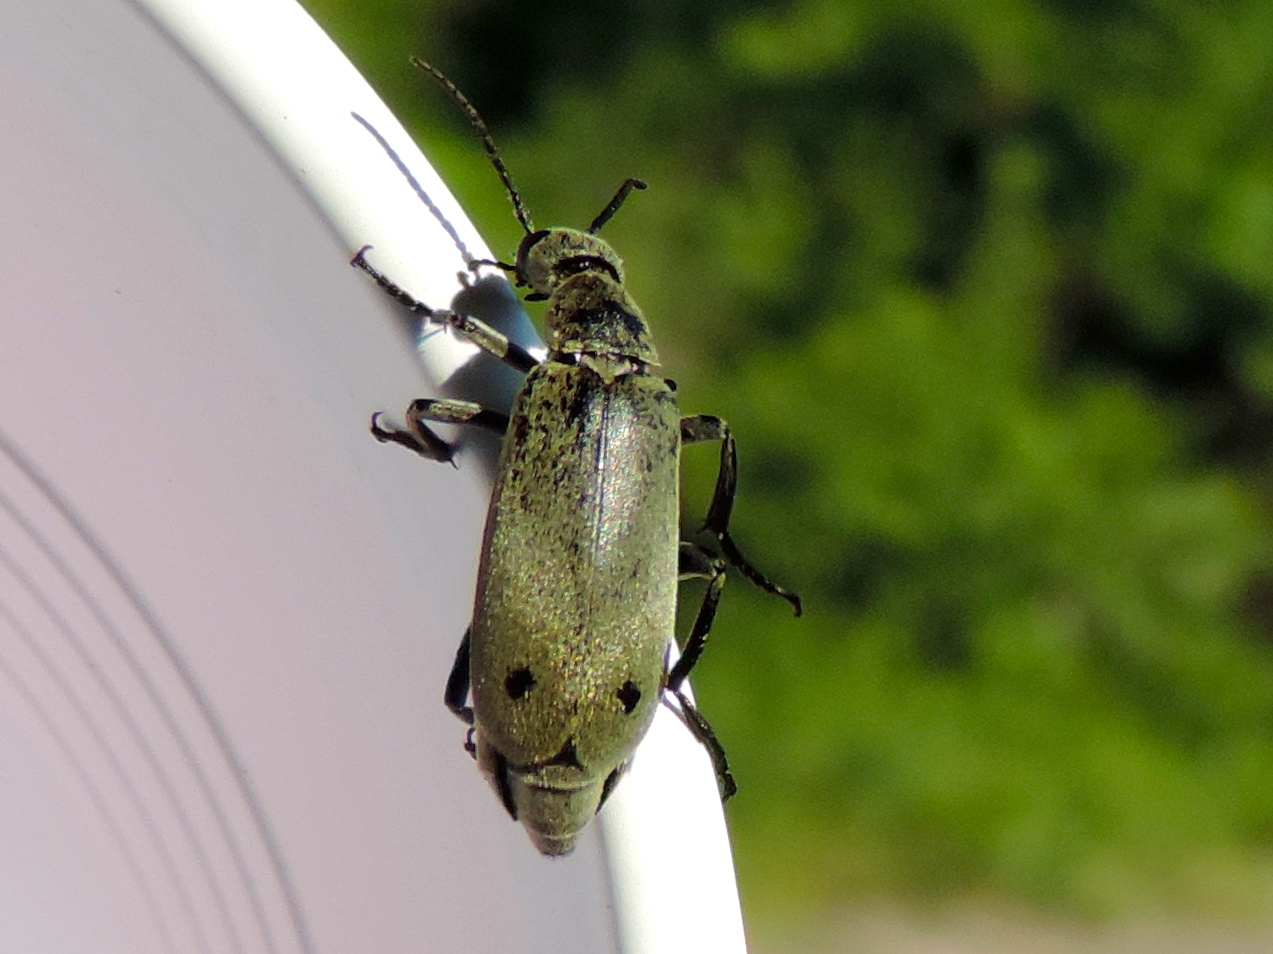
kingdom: Animalia
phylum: Arthropoda
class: Insecta
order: Coleoptera
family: Meloidae
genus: Epicauta
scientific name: Epicauta bipunctata
